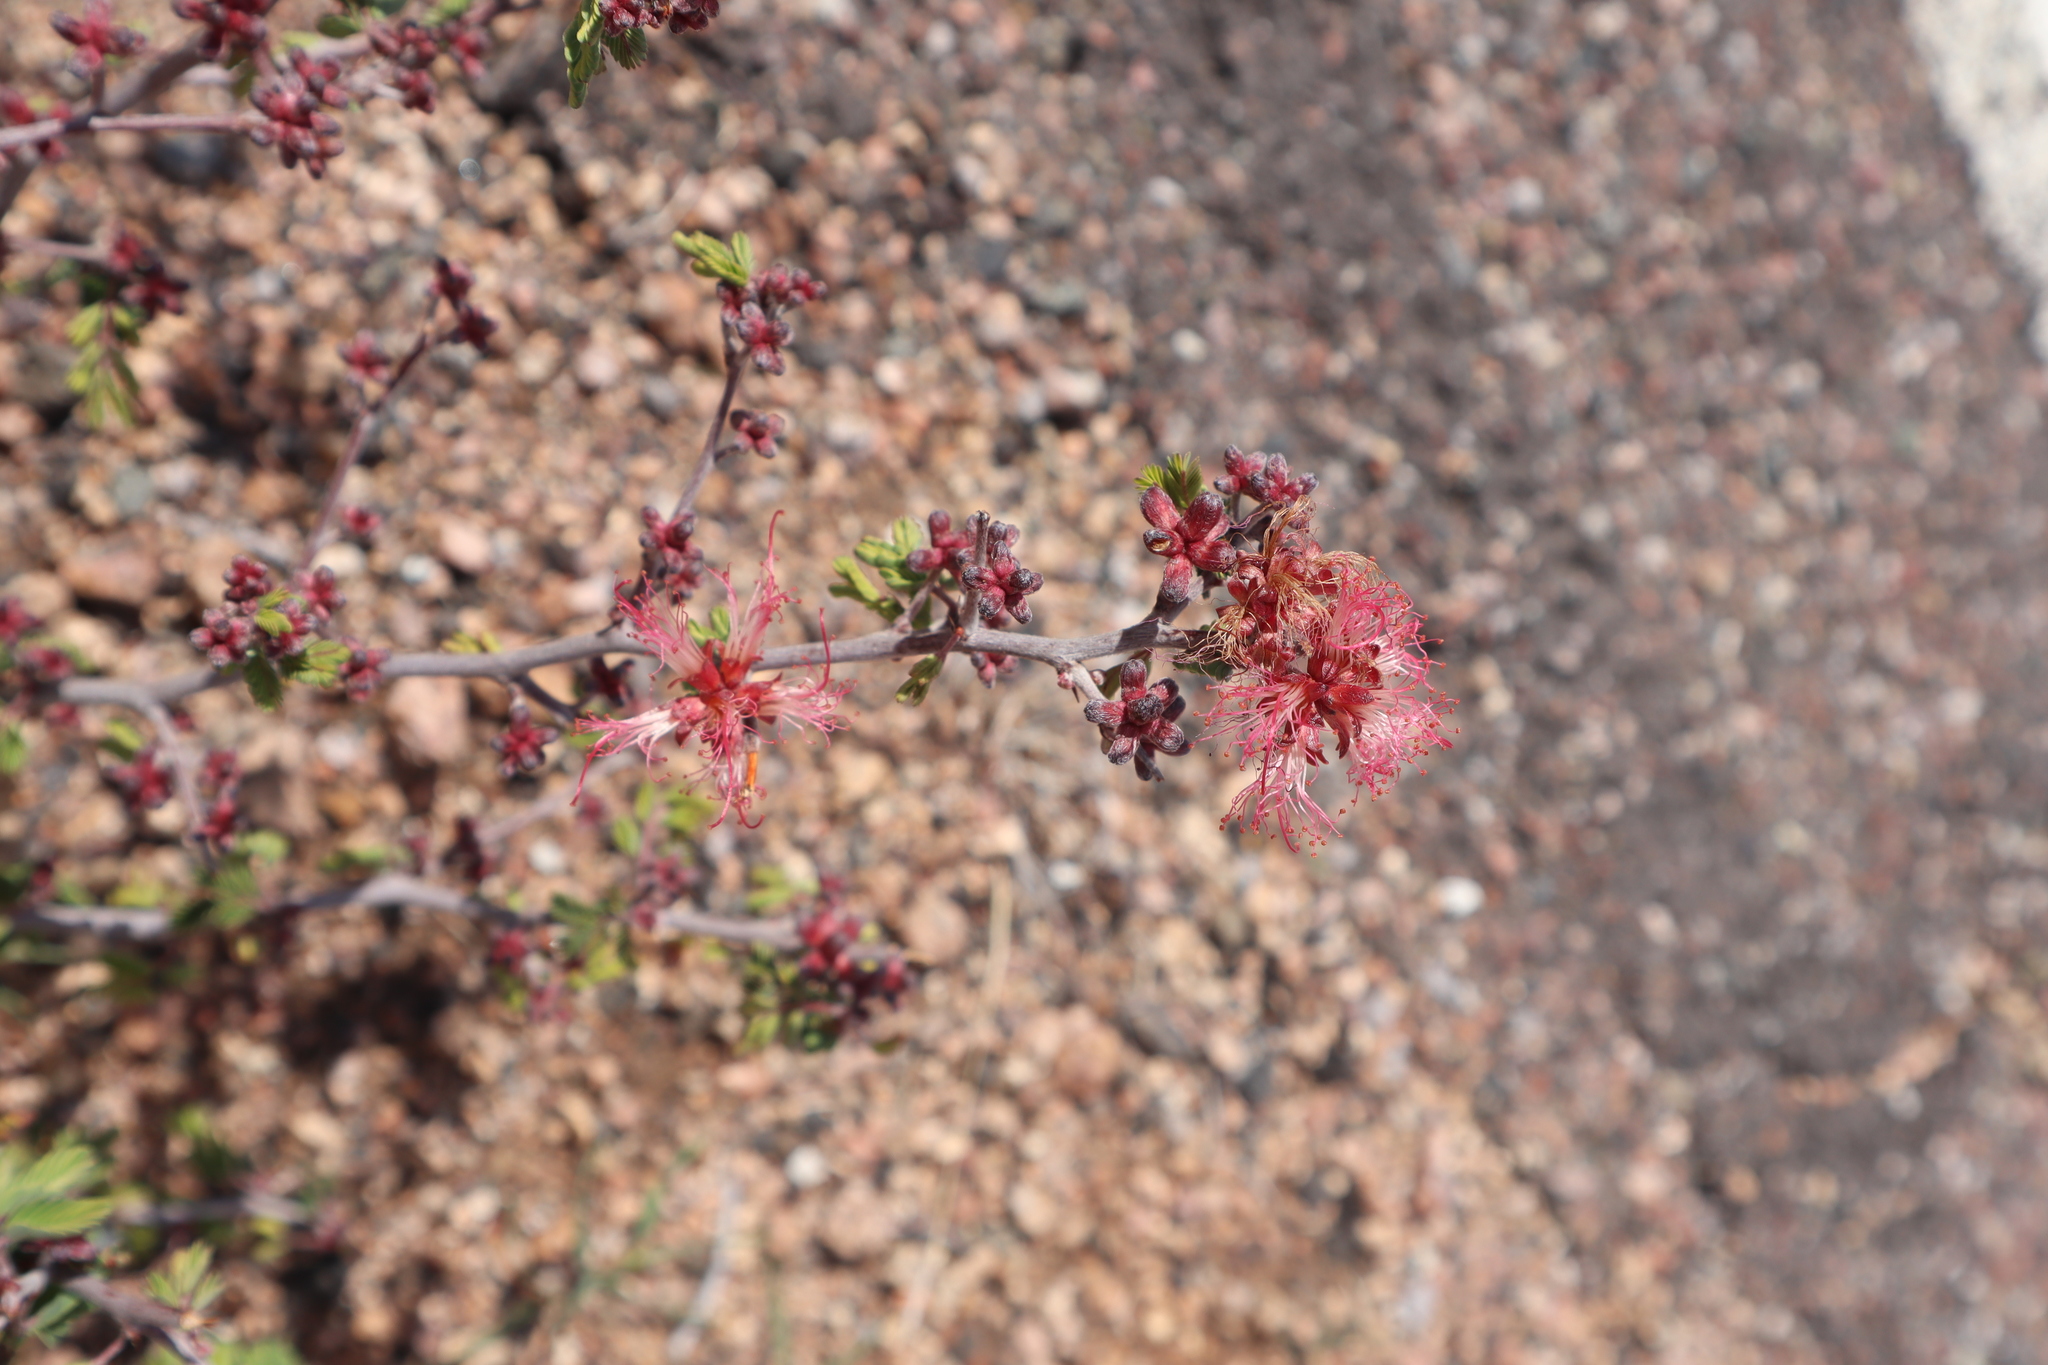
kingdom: Plantae
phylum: Tracheophyta
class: Magnoliopsida
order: Fabales
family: Fabaceae
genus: Calliandra
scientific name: Calliandra eriophylla
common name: Fairy-duster
